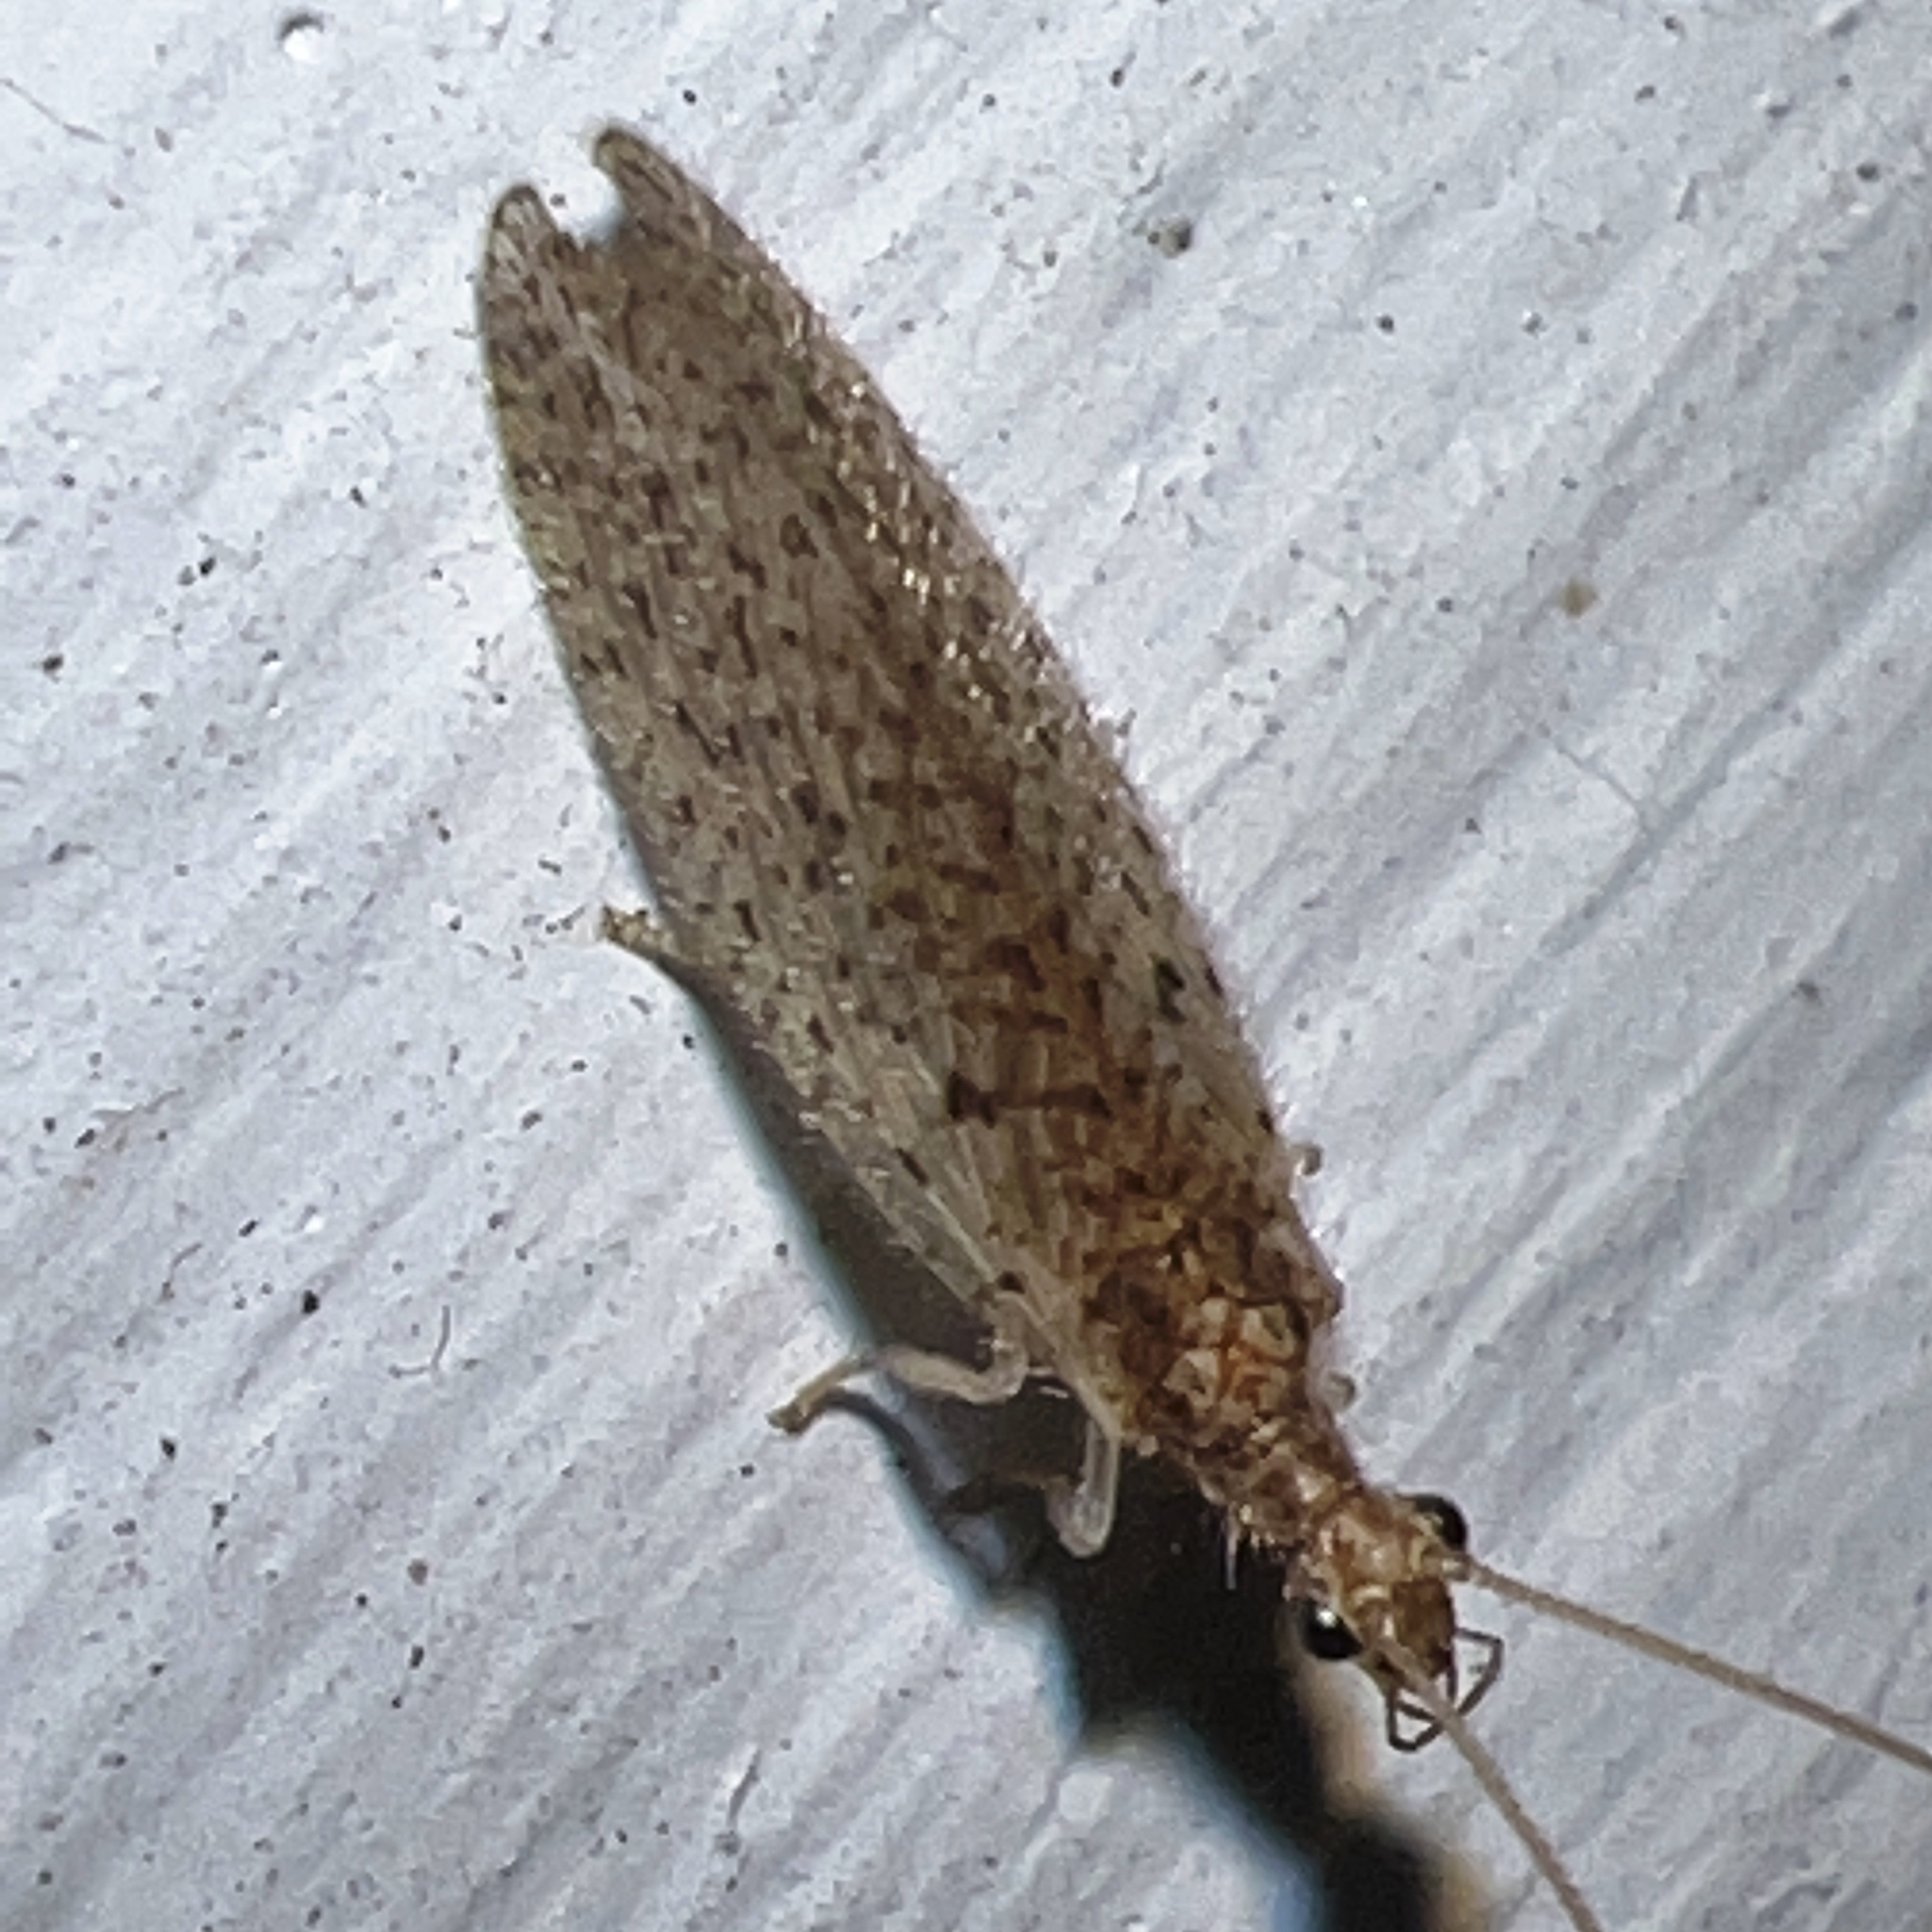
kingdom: Animalia
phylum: Arthropoda
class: Insecta
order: Neuroptera
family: Hemerobiidae
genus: Micromus
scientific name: Micromus subanticus
